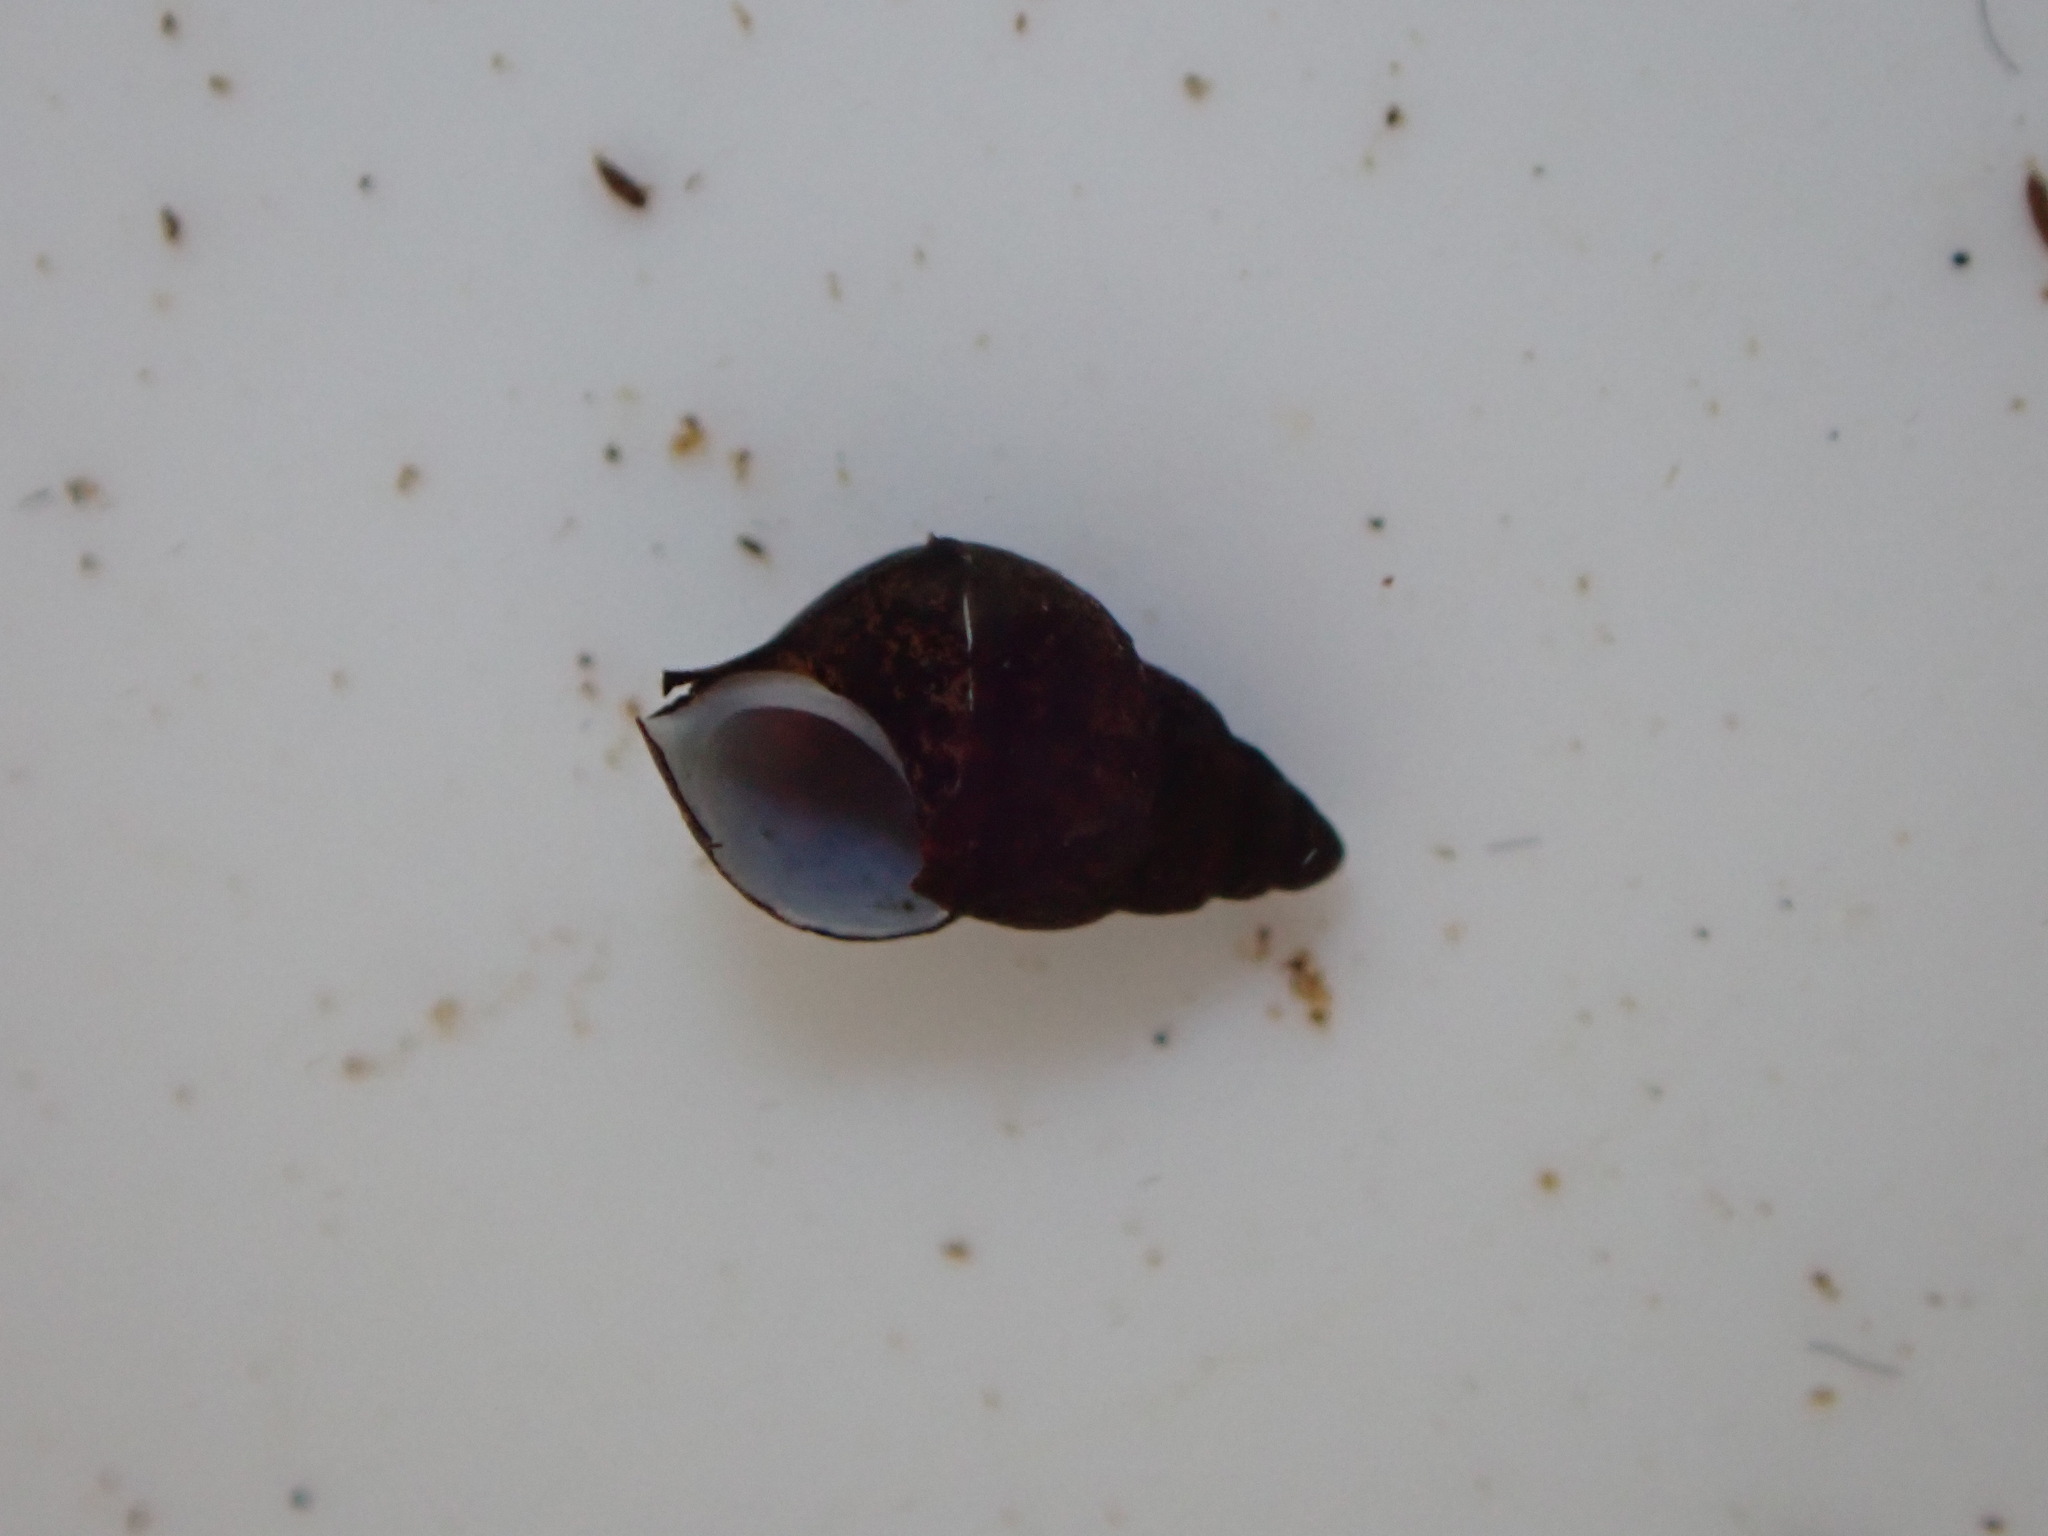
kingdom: Animalia
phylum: Mollusca
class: Gastropoda
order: Littorinimorpha
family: Tateidae
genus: Potamopyrgus
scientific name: Potamopyrgus antipodarum
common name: Jenkins' spire snail
